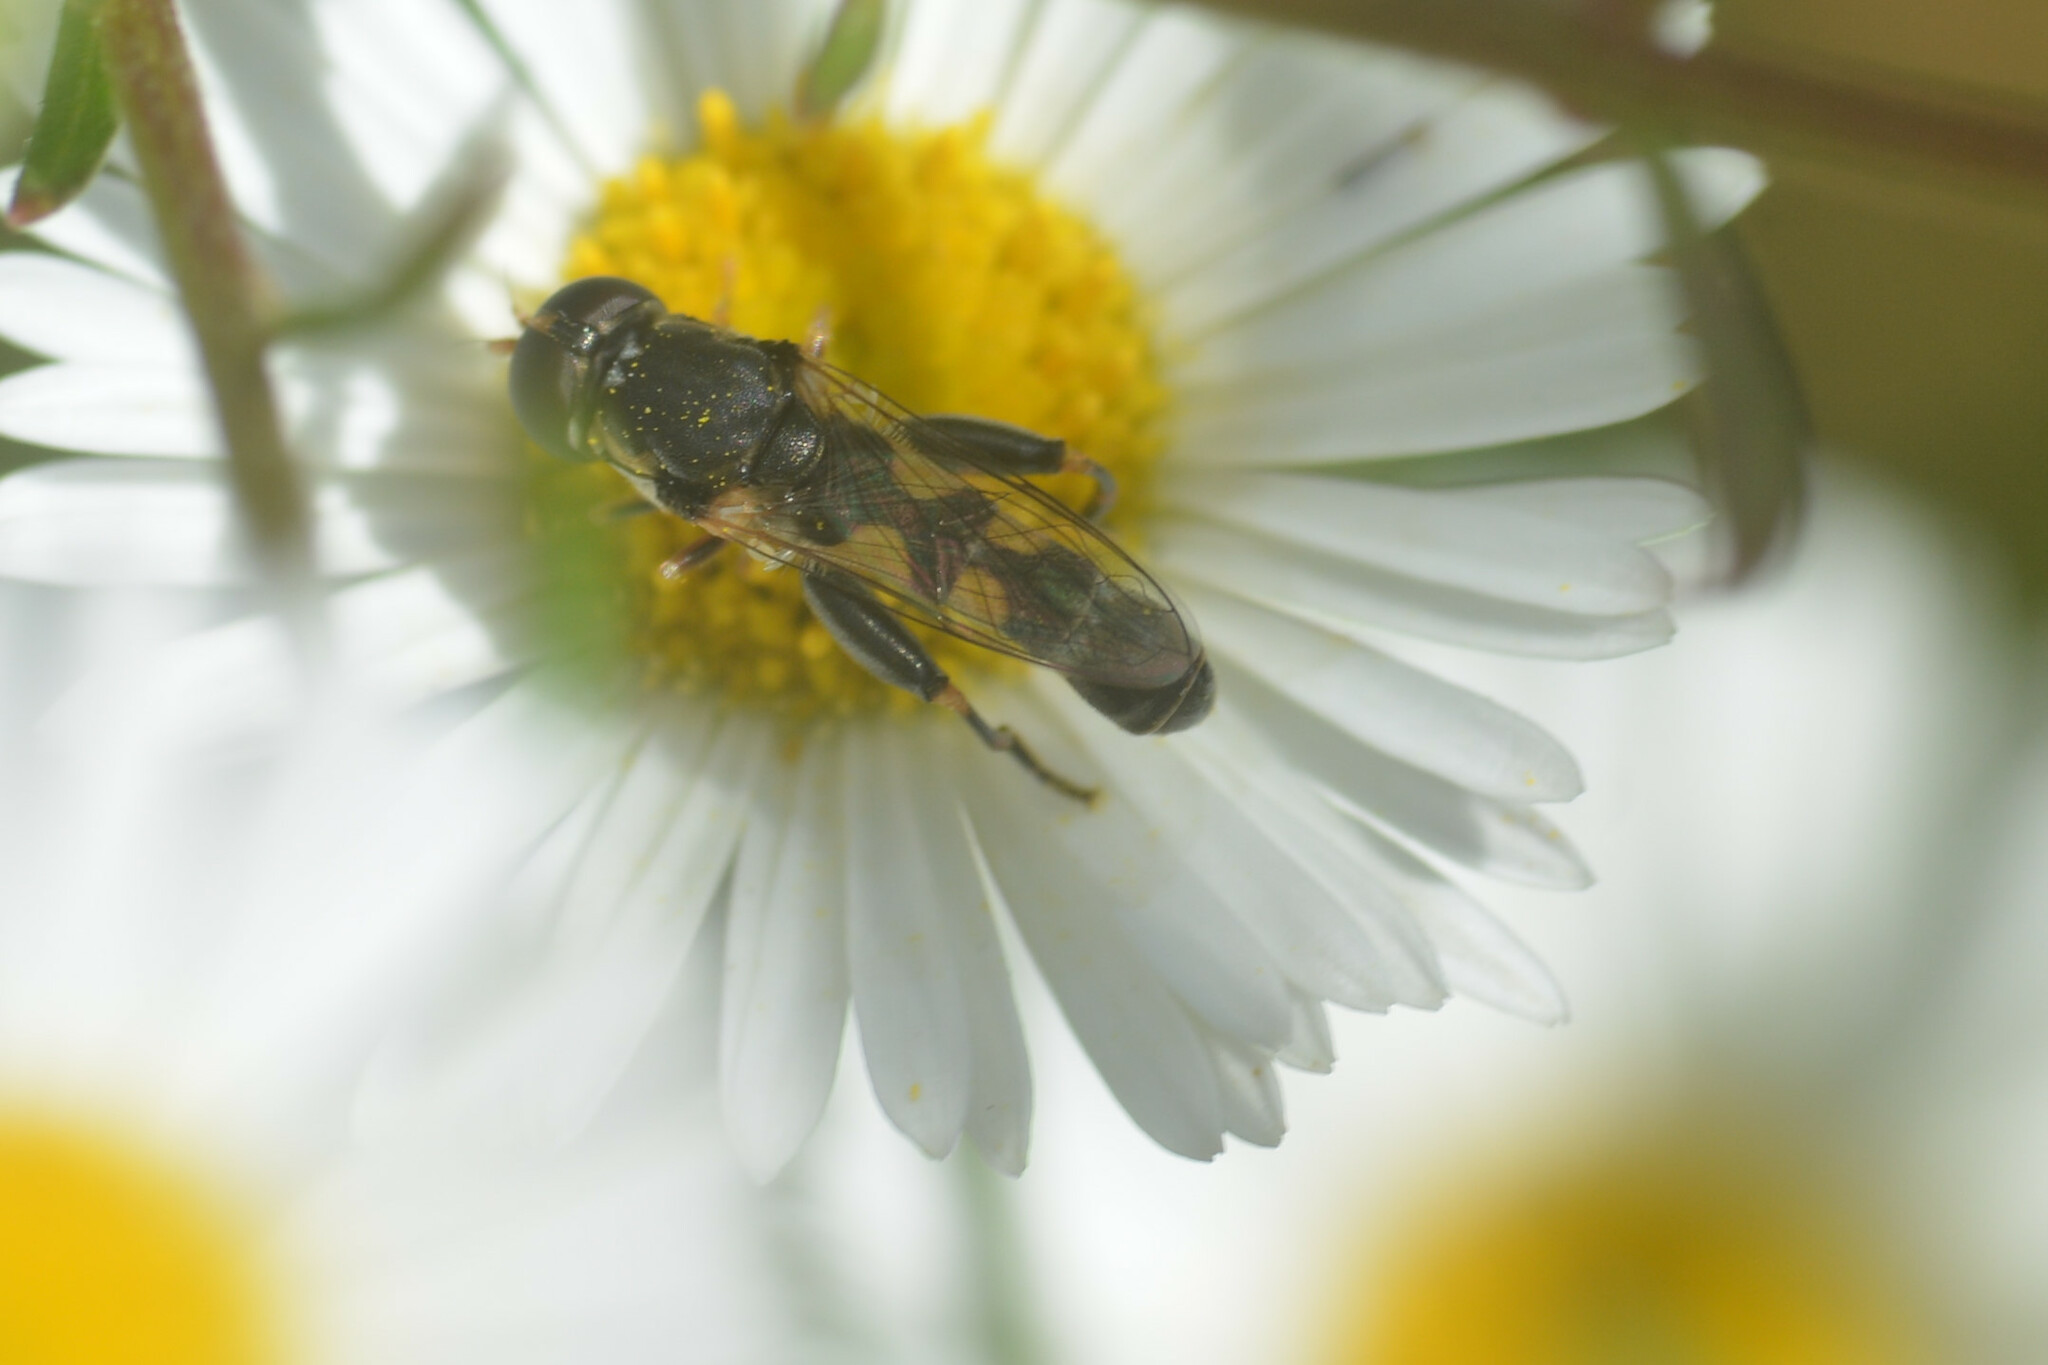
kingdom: Animalia
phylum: Arthropoda
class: Insecta
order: Diptera
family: Syrphidae
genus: Syritta
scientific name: Syritta pipiens
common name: Hover fly
